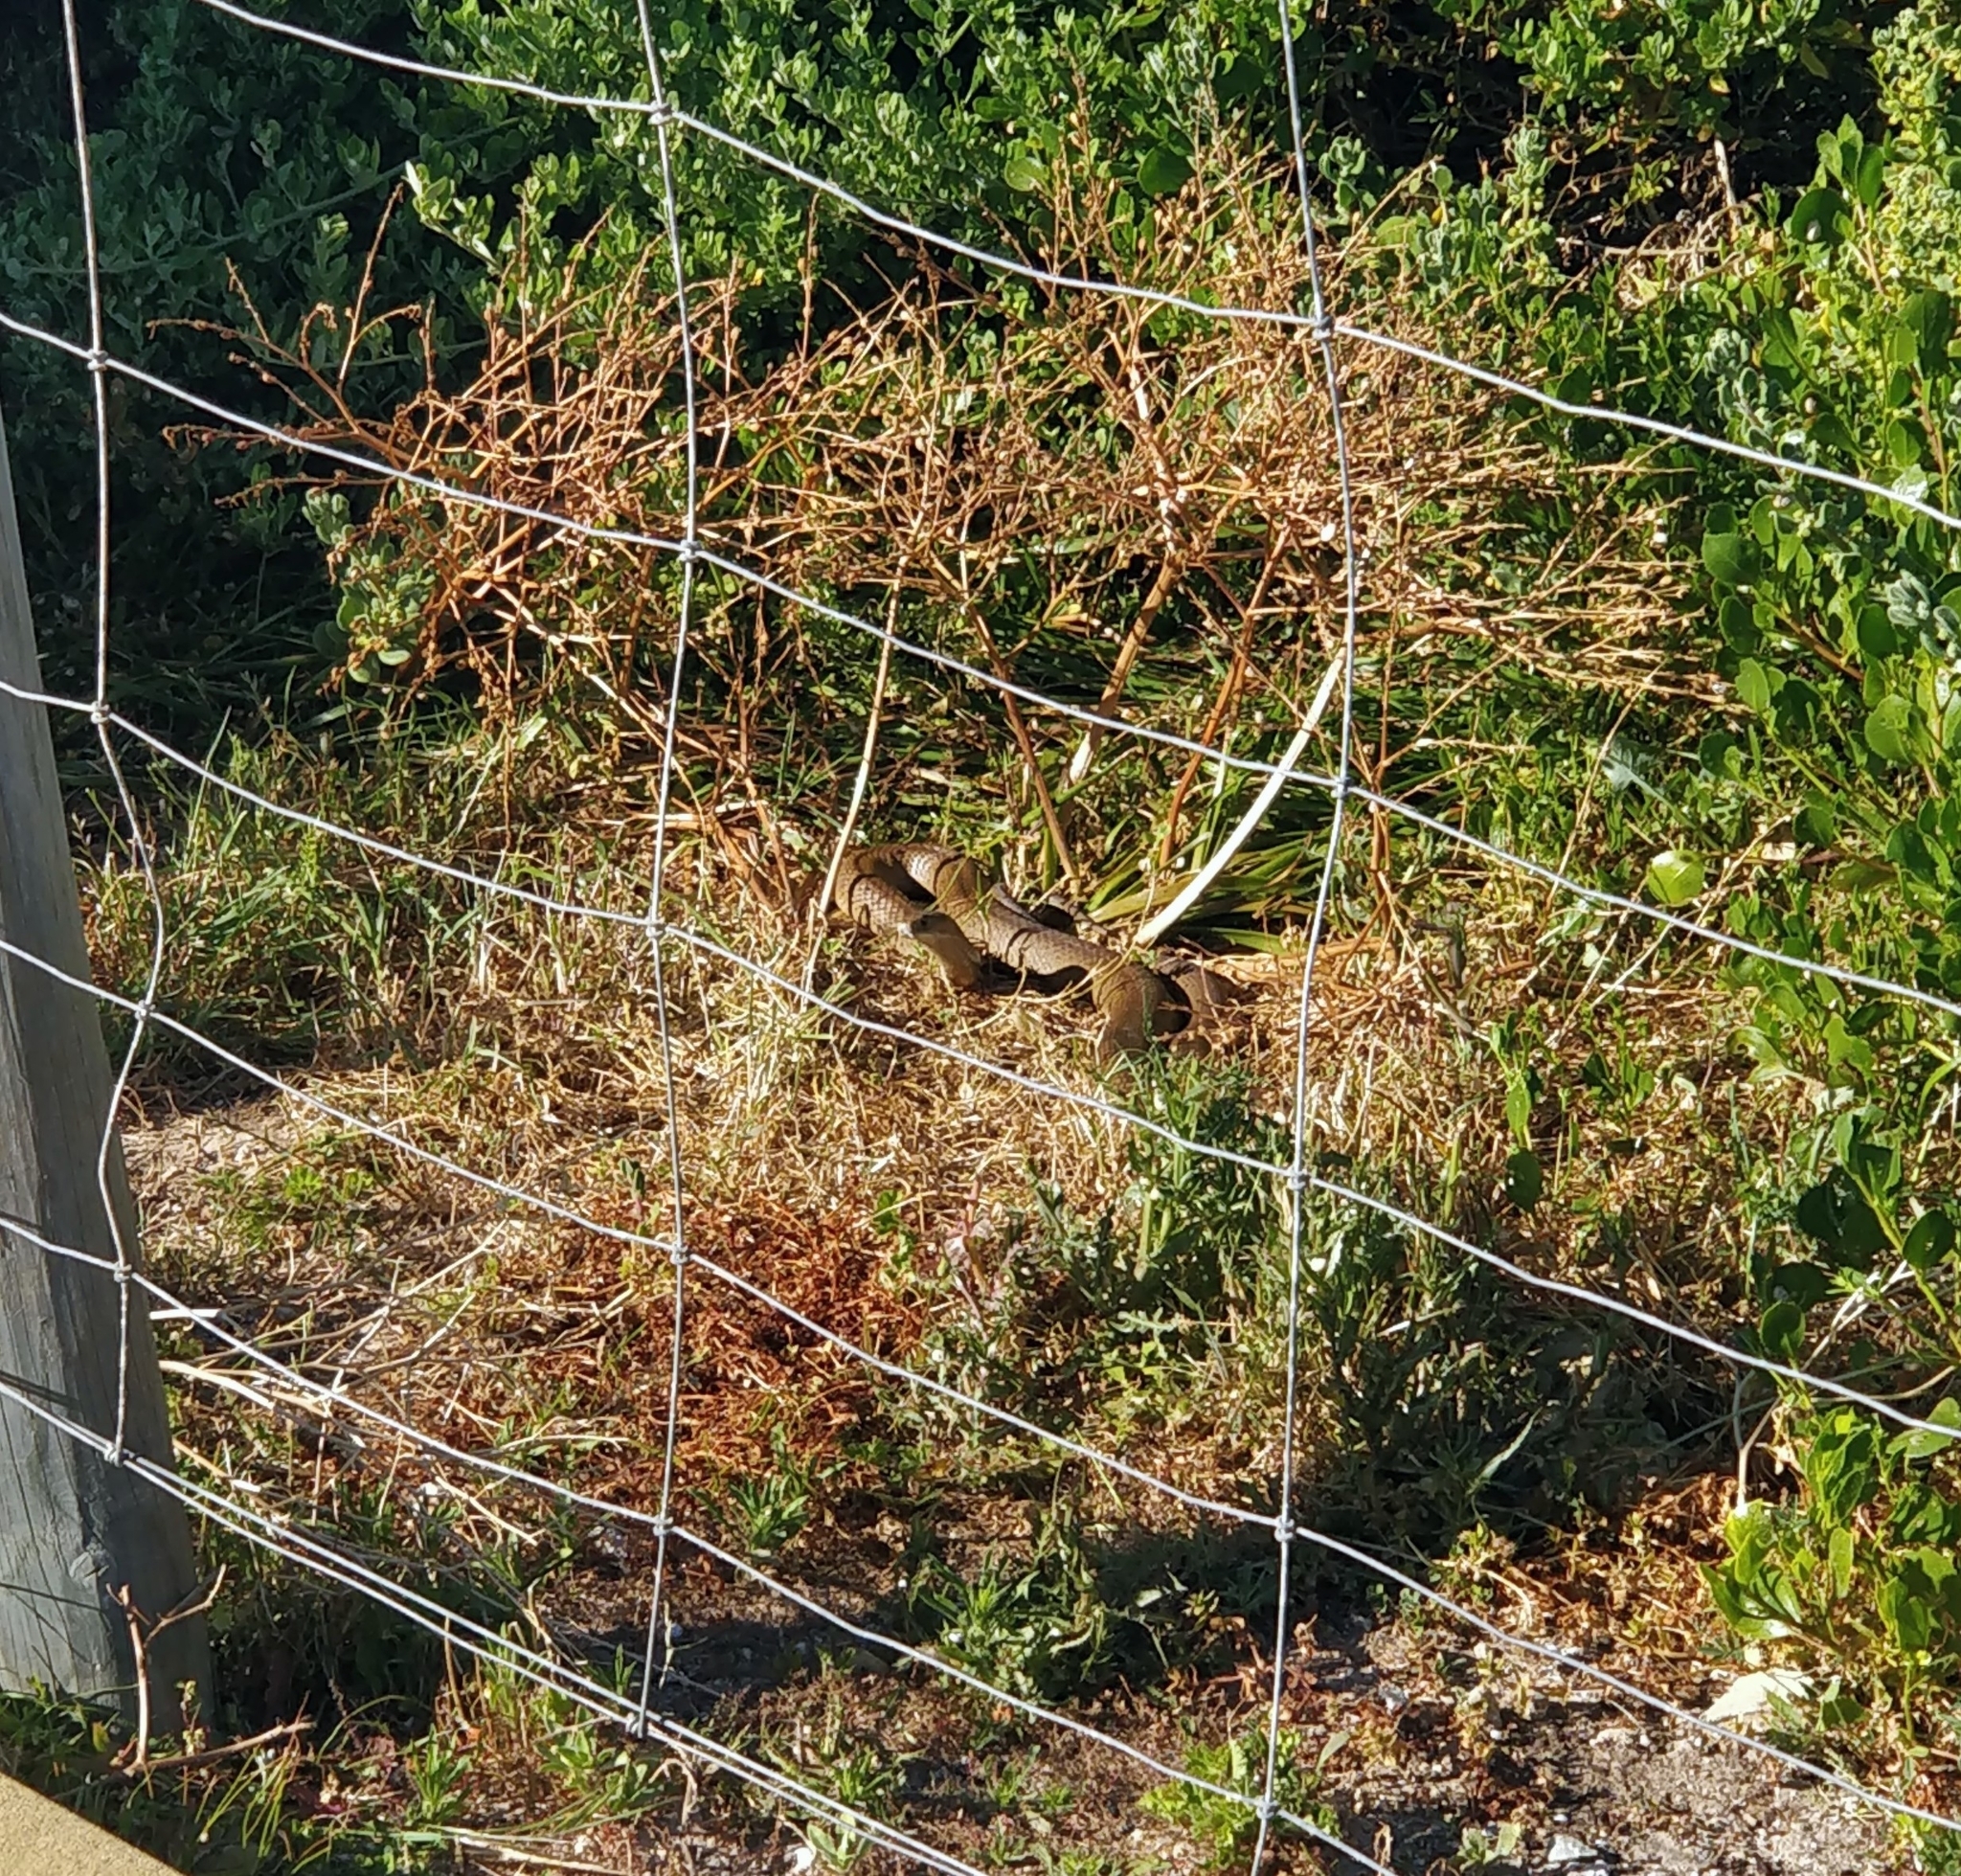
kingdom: Animalia
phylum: Chordata
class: Squamata
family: Elapidae
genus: Pseudonaja
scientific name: Pseudonaja affinis
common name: Dugite
